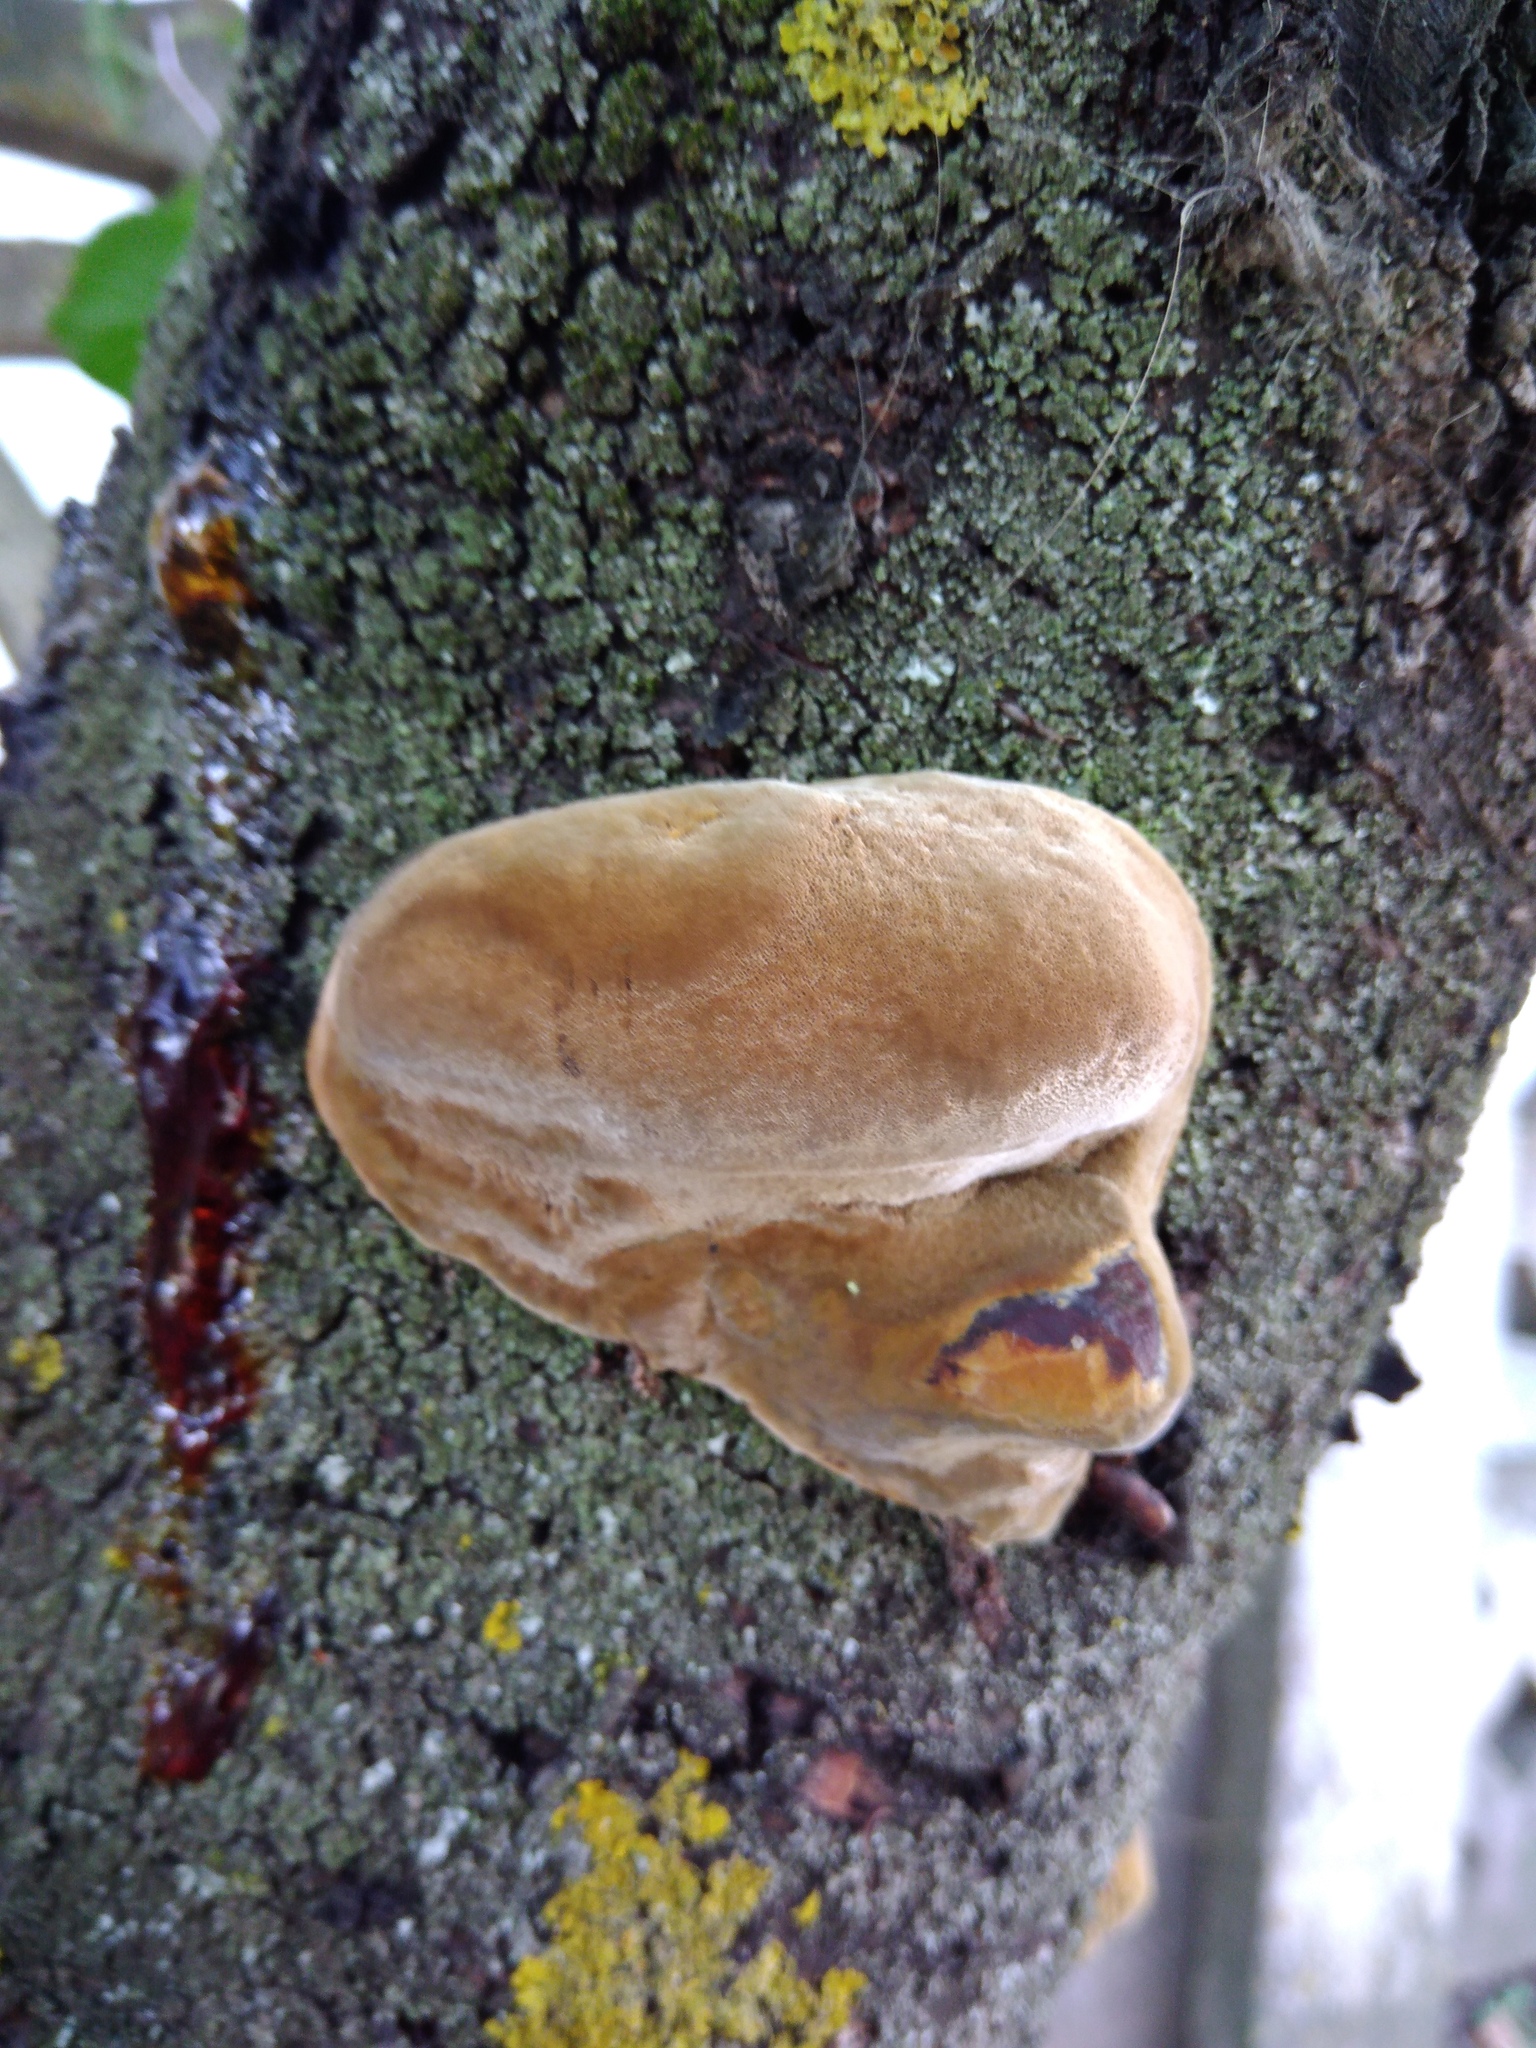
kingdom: Fungi
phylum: Basidiomycota
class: Agaricomycetes
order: Hymenochaetales
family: Hymenochaetaceae
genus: Phellinus
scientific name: Phellinus pomaceus
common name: Cushion bracket
